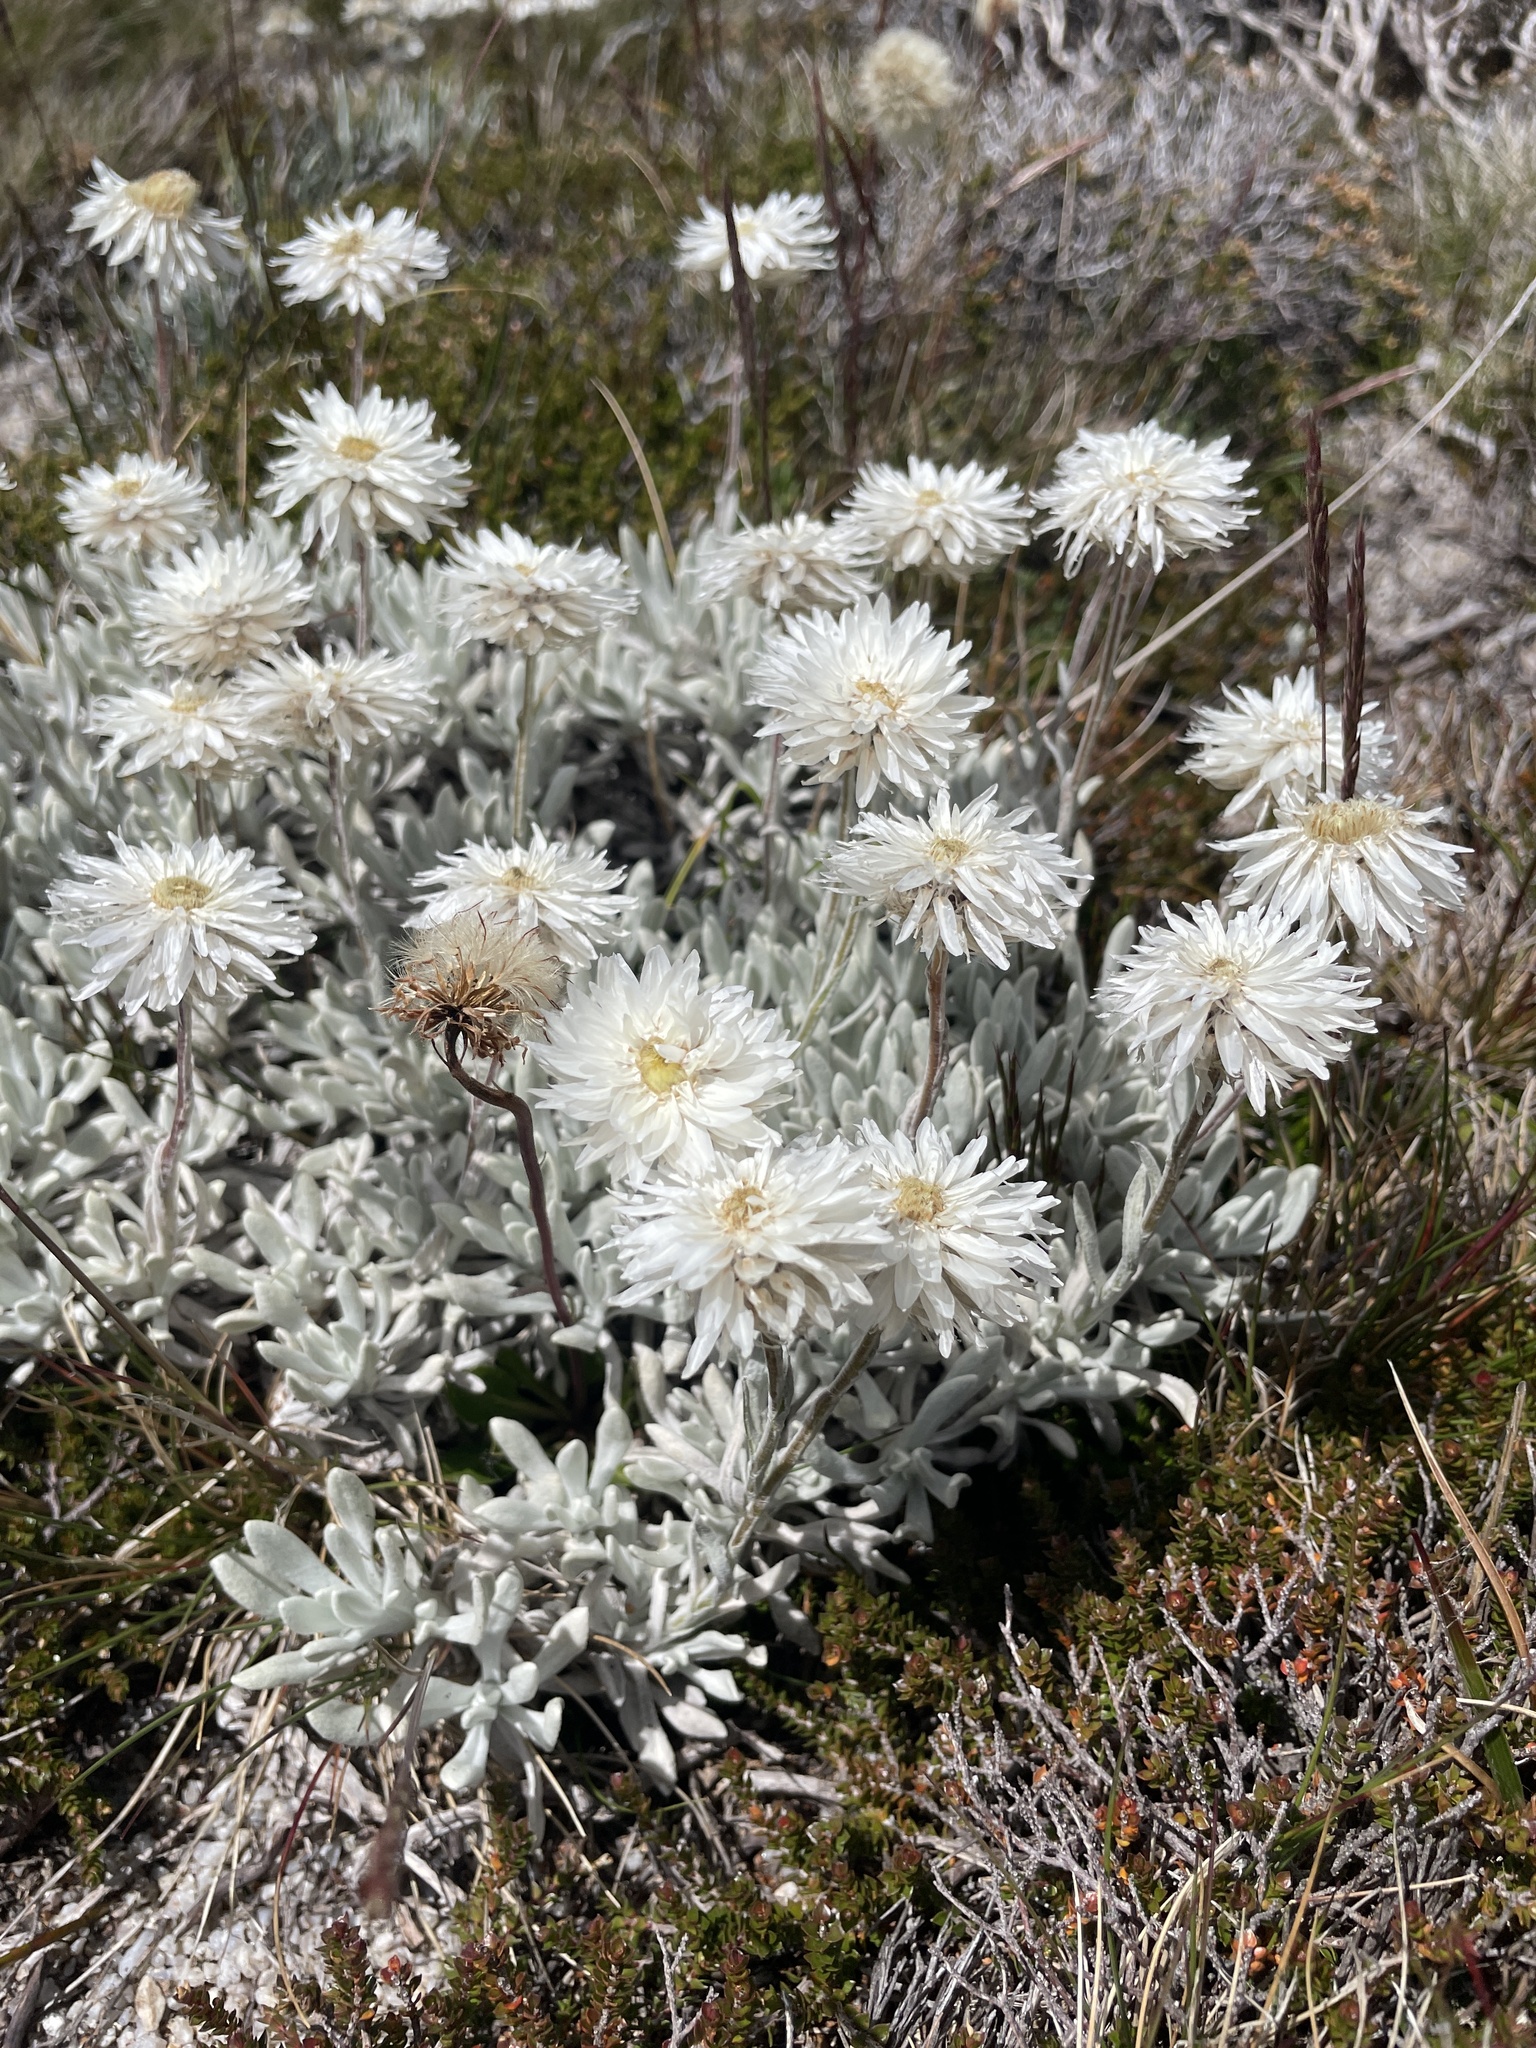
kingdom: Plantae
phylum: Tracheophyta
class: Magnoliopsida
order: Asterales
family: Asteraceae
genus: Leucochrysum
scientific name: Leucochrysum alpinum
